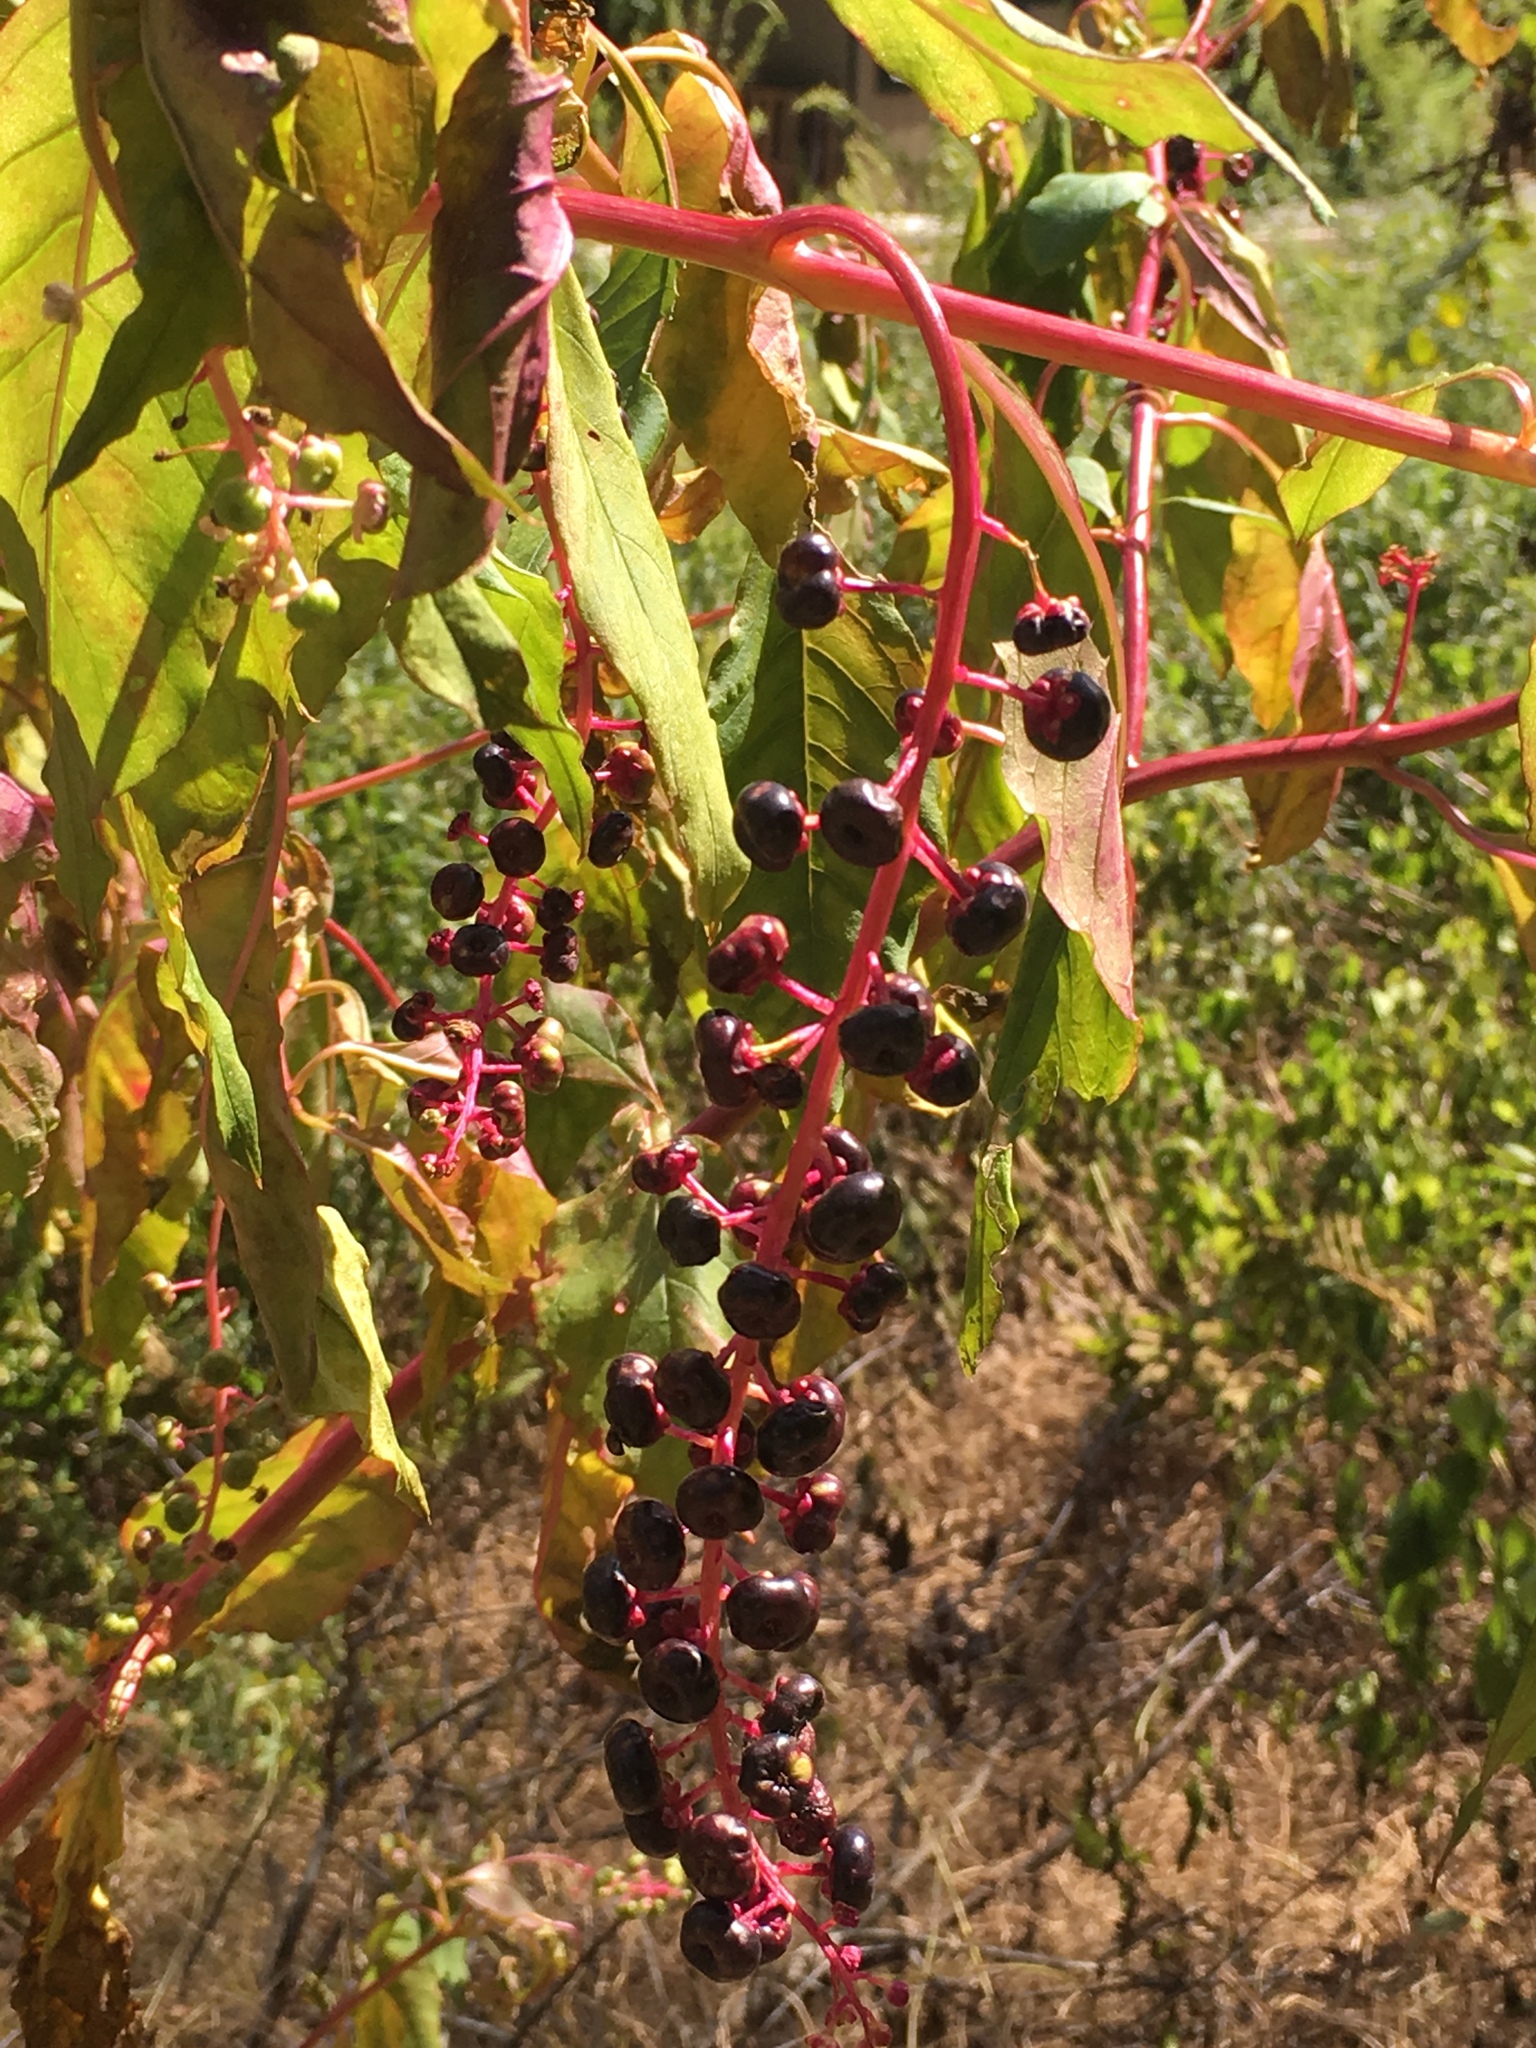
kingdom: Plantae
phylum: Tracheophyta
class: Magnoliopsida
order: Caryophyllales
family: Phytolaccaceae
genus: Phytolacca
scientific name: Phytolacca americana
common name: American pokeweed
